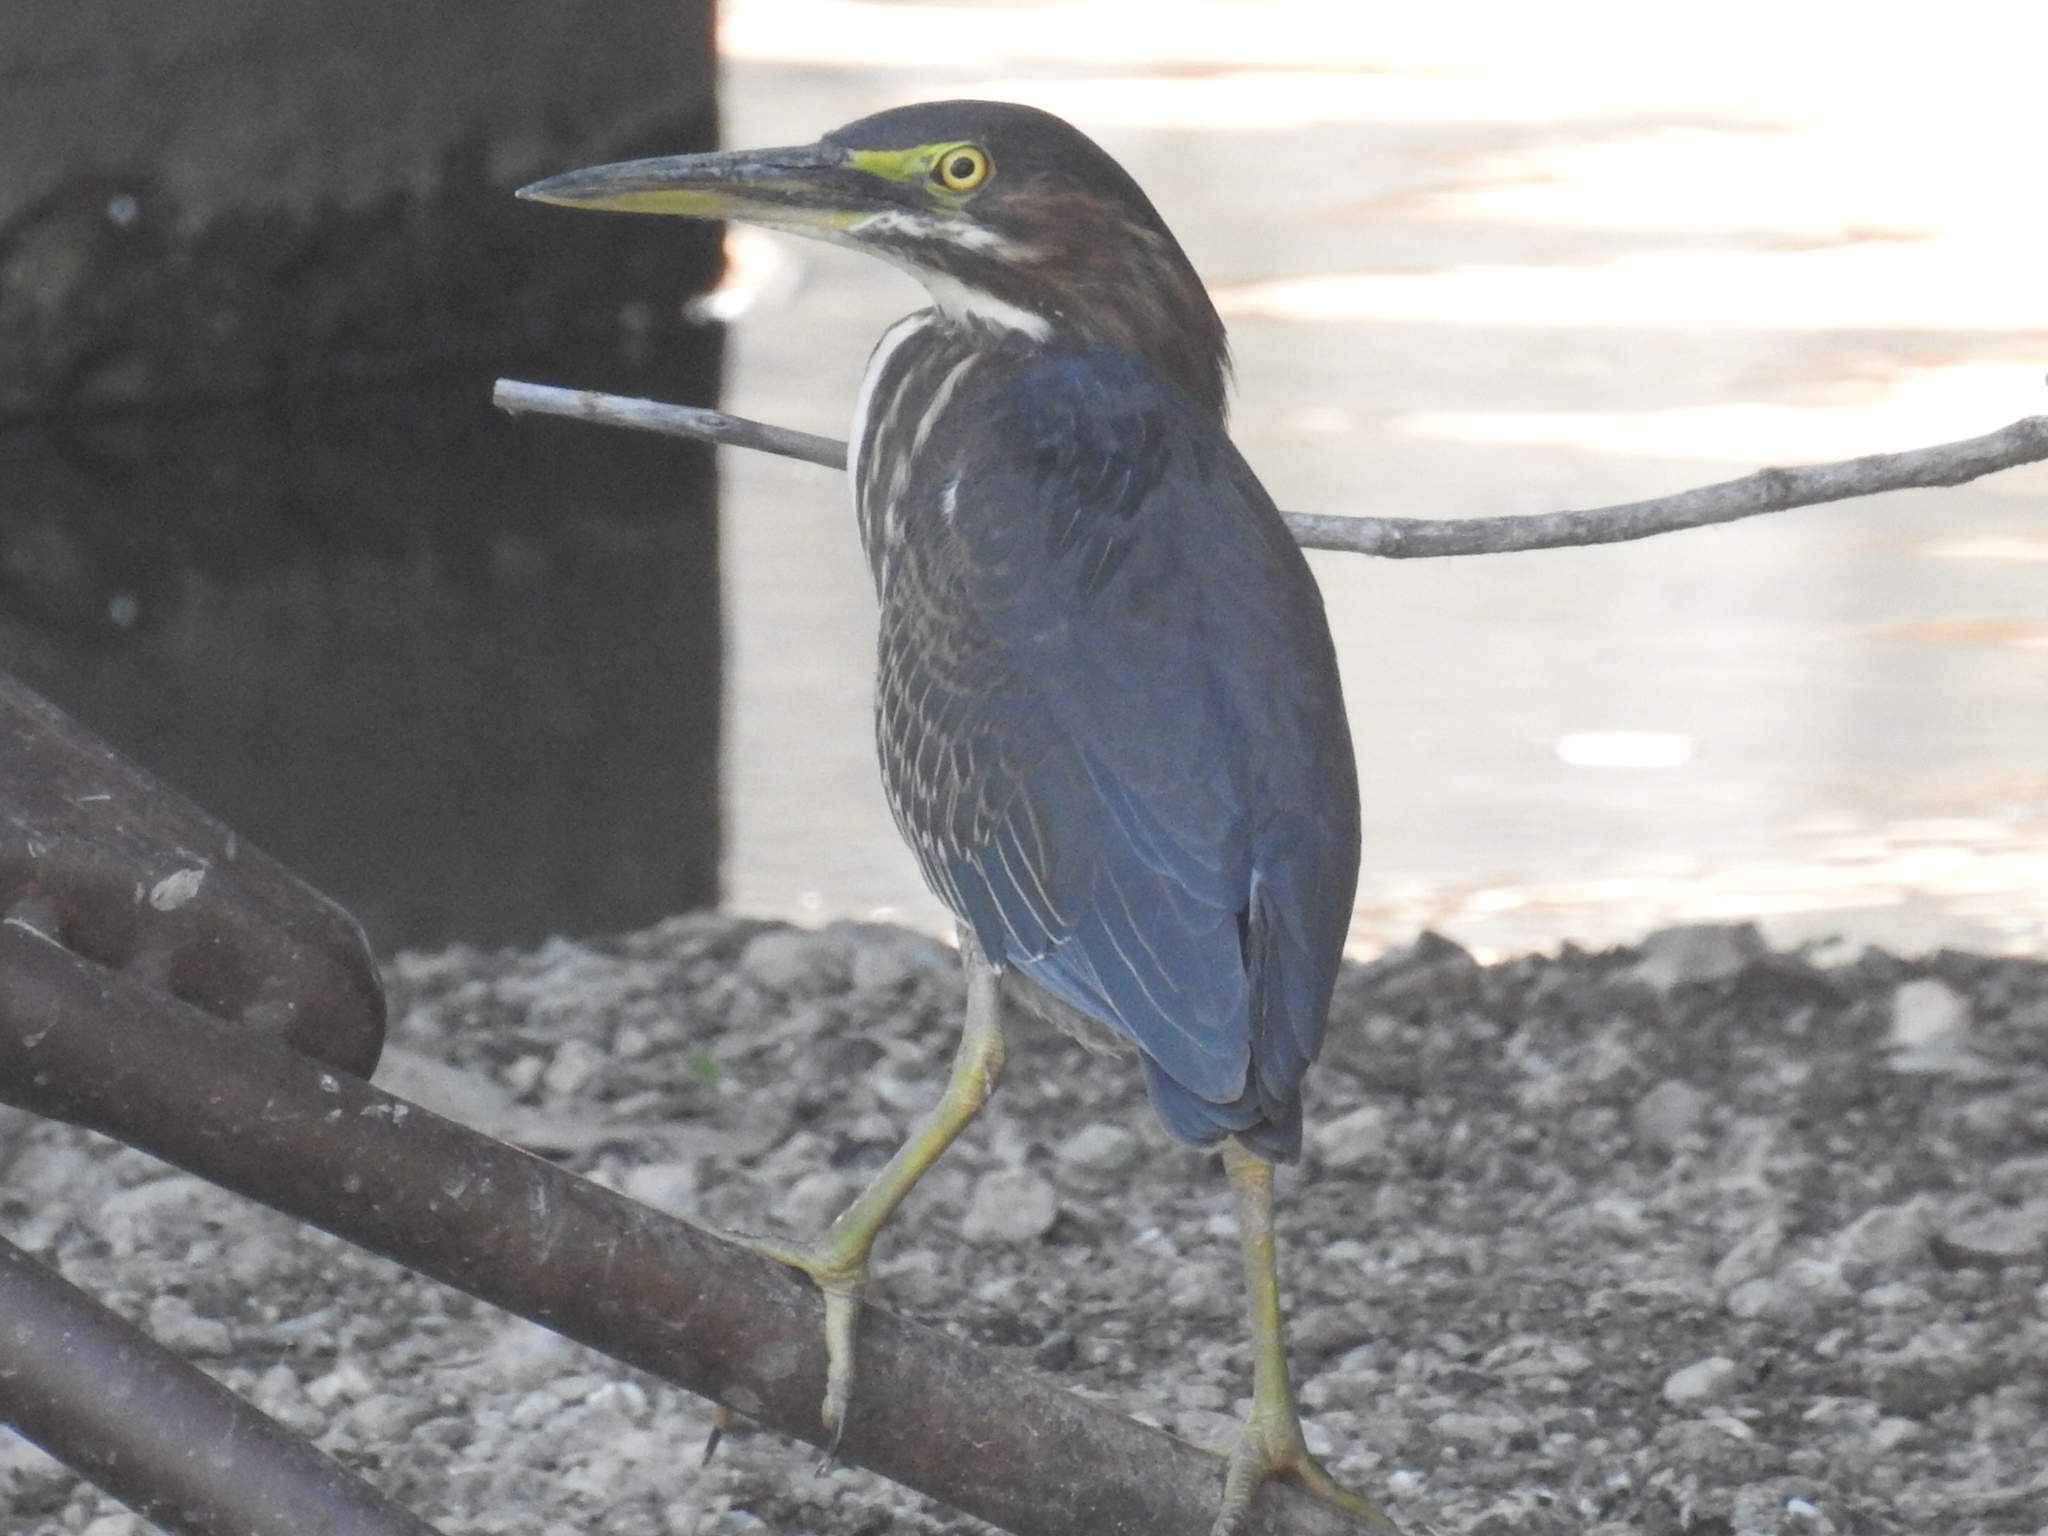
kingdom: Animalia
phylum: Chordata
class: Aves
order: Pelecaniformes
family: Ardeidae
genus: Butorides
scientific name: Butorides virescens
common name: Green heron
